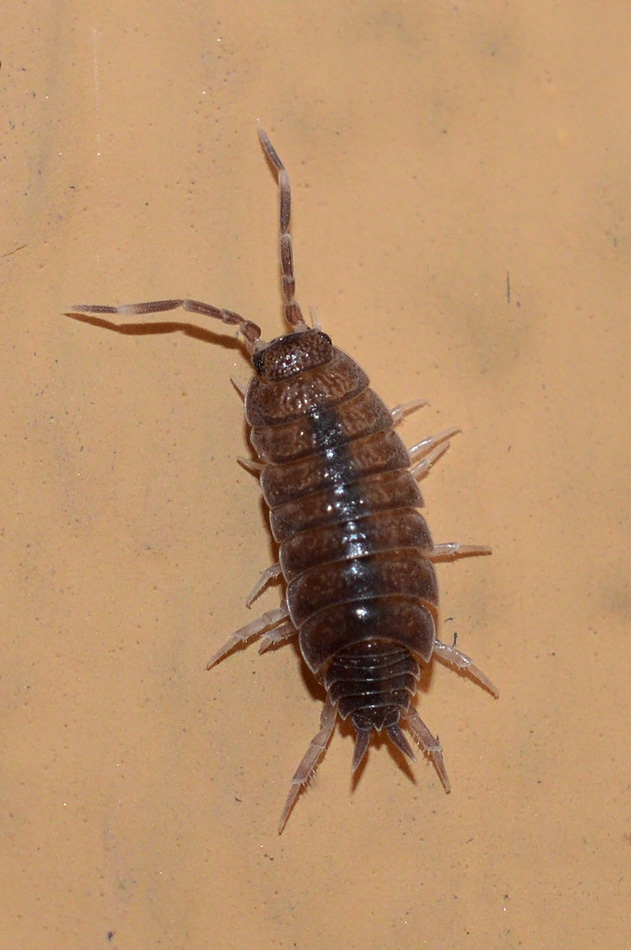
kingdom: Animalia
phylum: Arthropoda
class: Malacostraca
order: Isopoda
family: Porcellionidae
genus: Porcellionides
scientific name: Porcellionides pruinosus
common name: Plum woodlouse
